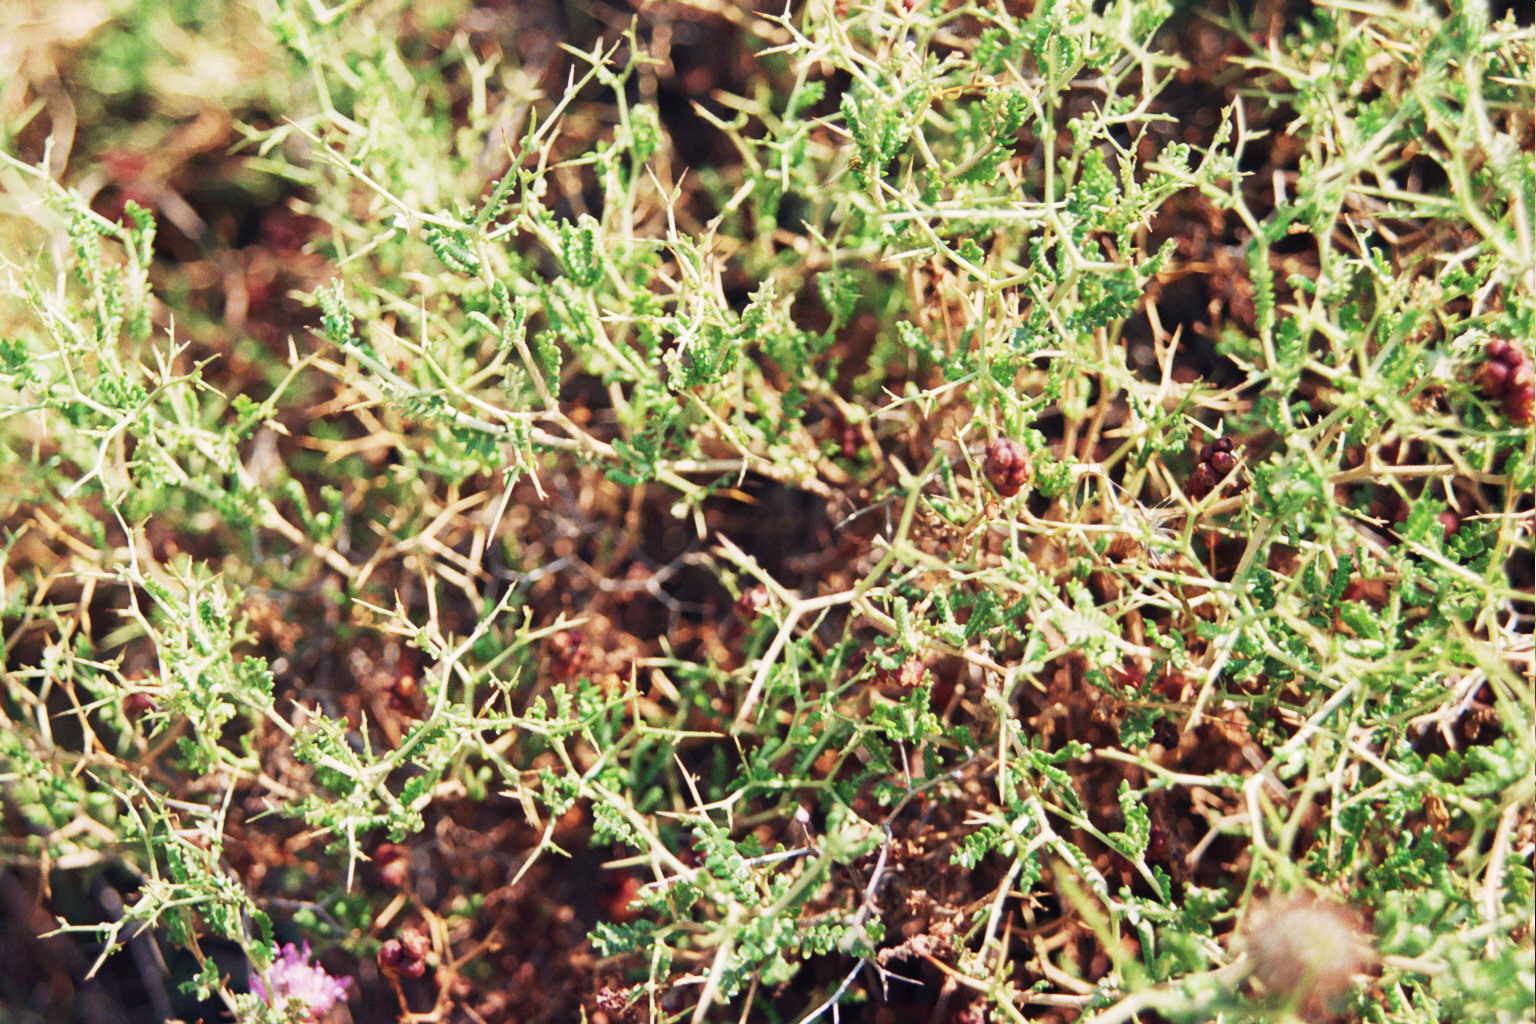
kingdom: Plantae
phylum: Tracheophyta
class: Magnoliopsida
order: Rosales
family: Rosaceae
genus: Sarcopoterium
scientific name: Sarcopoterium spinosum
